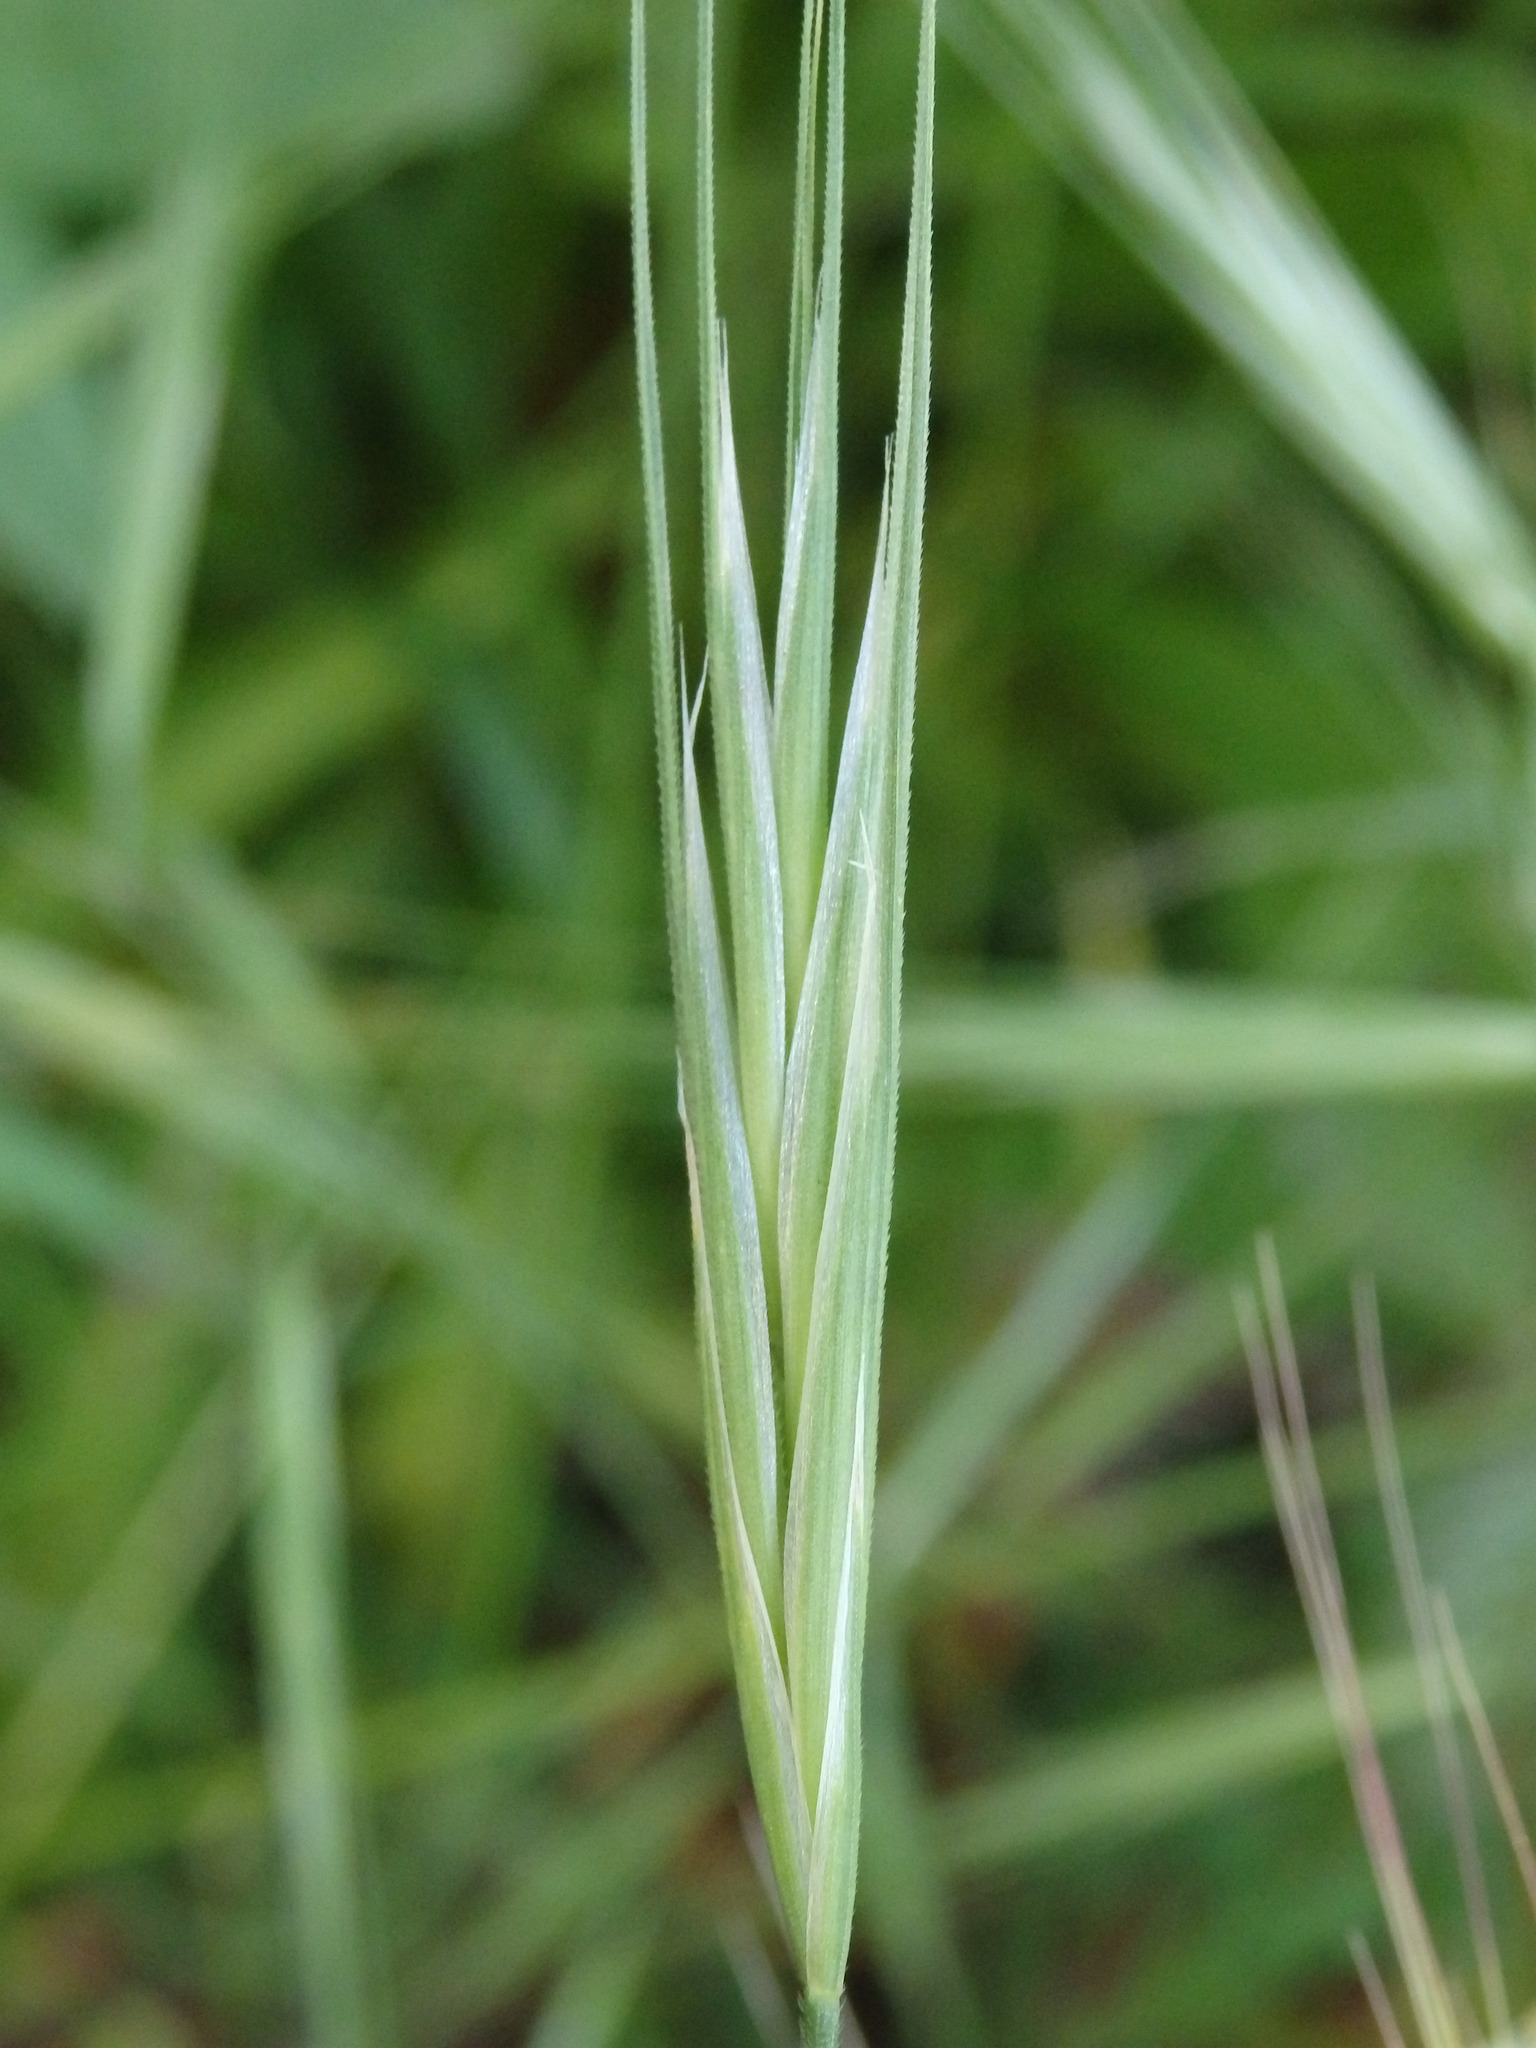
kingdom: Plantae
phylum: Tracheophyta
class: Liliopsida
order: Poales
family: Poaceae
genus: Bromus
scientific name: Bromus diandrus
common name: Ripgut brome
